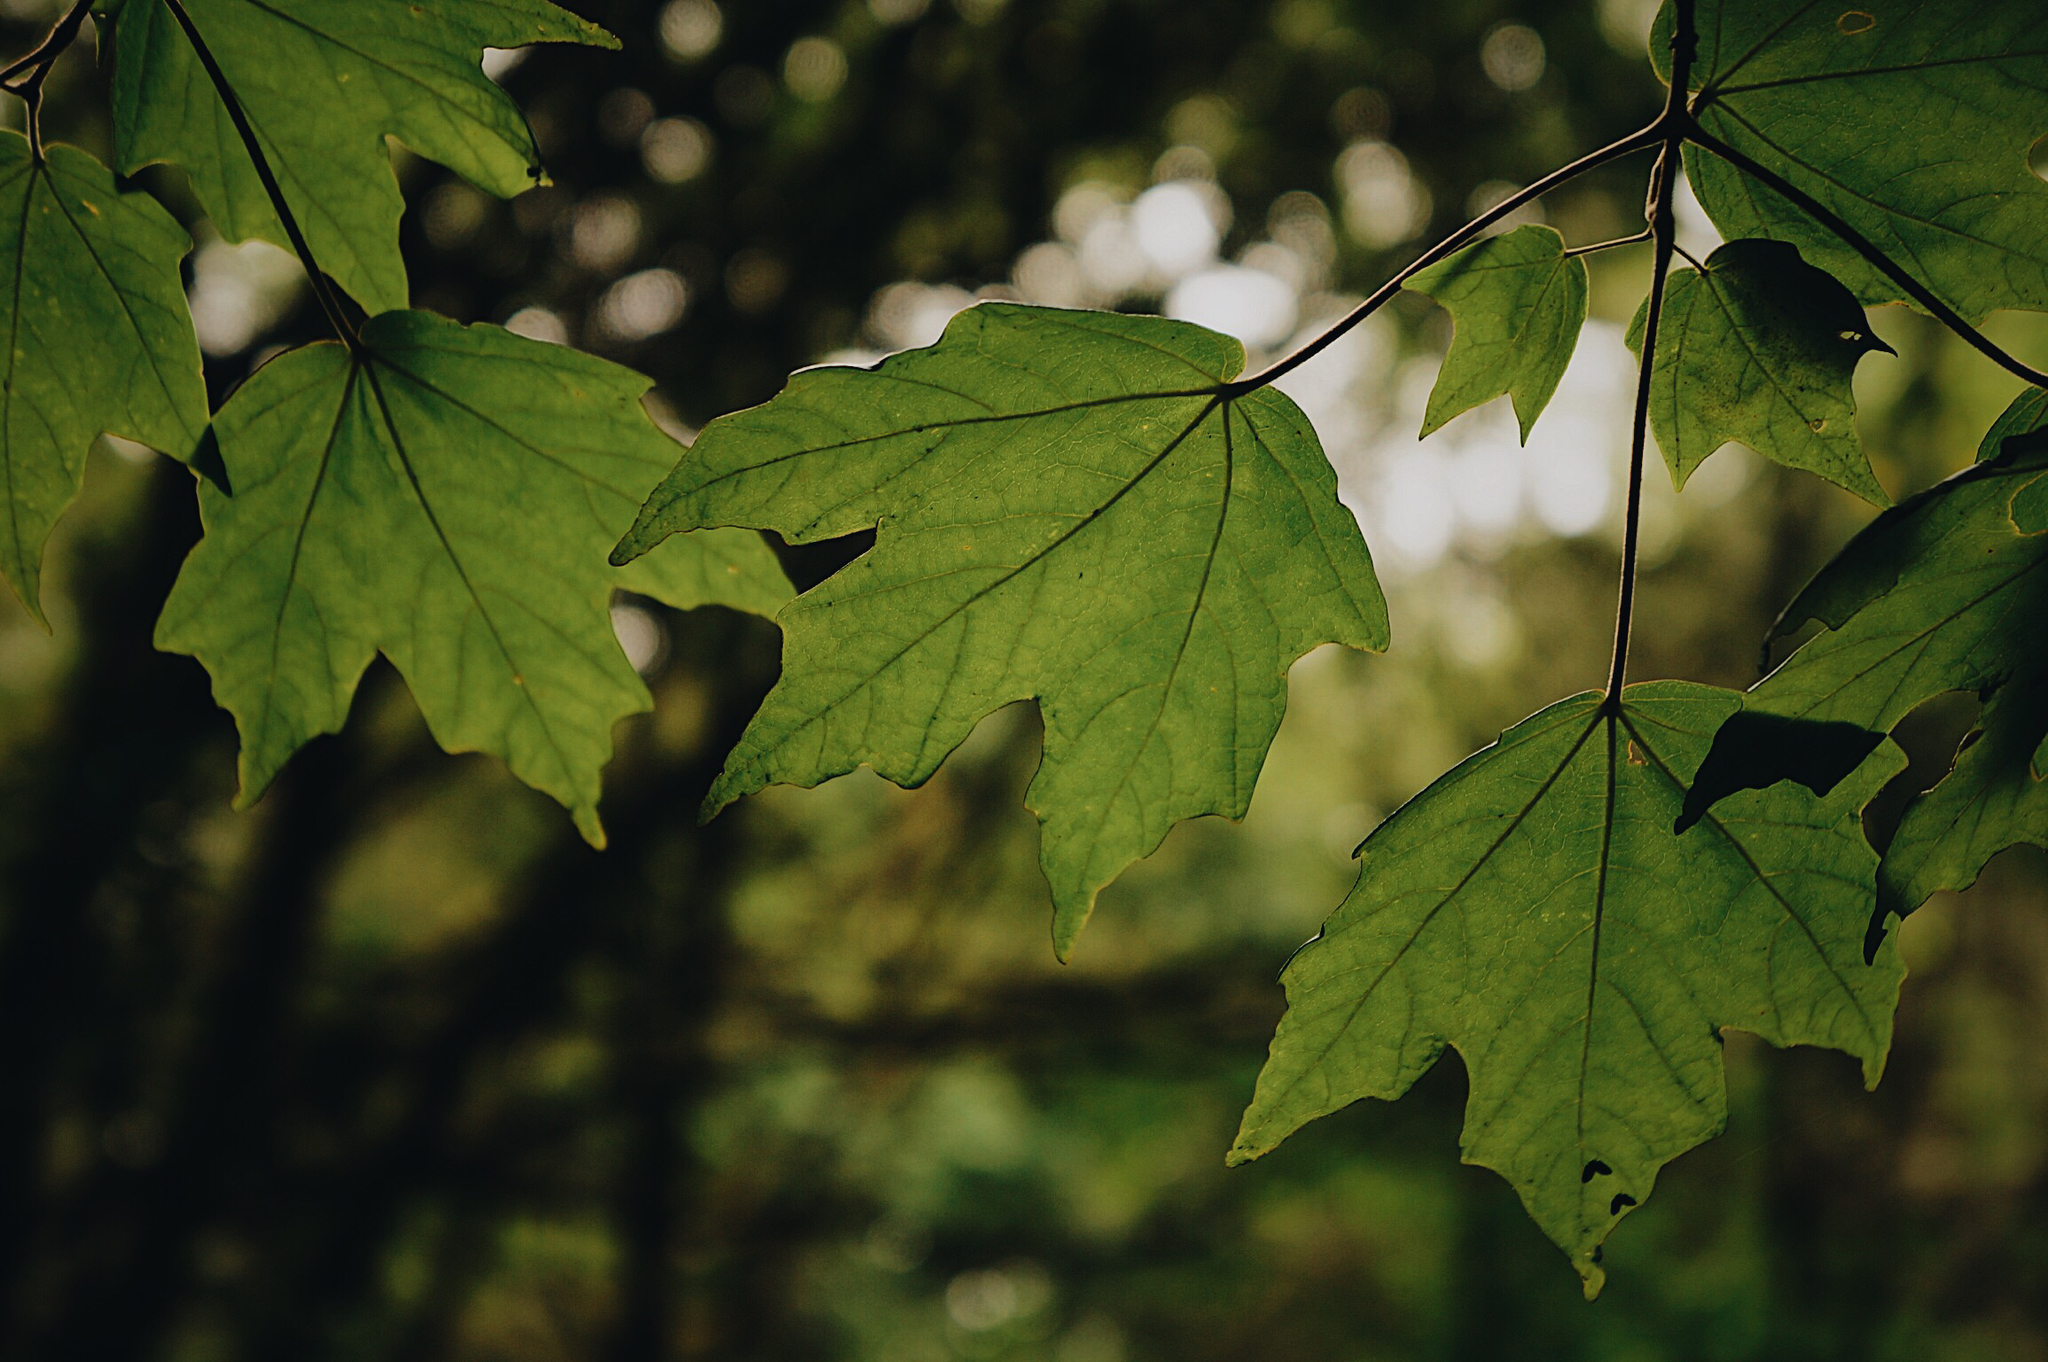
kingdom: Plantae
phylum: Tracheophyta
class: Magnoliopsida
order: Sapindales
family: Sapindaceae
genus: Acer
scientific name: Acer skutchii
